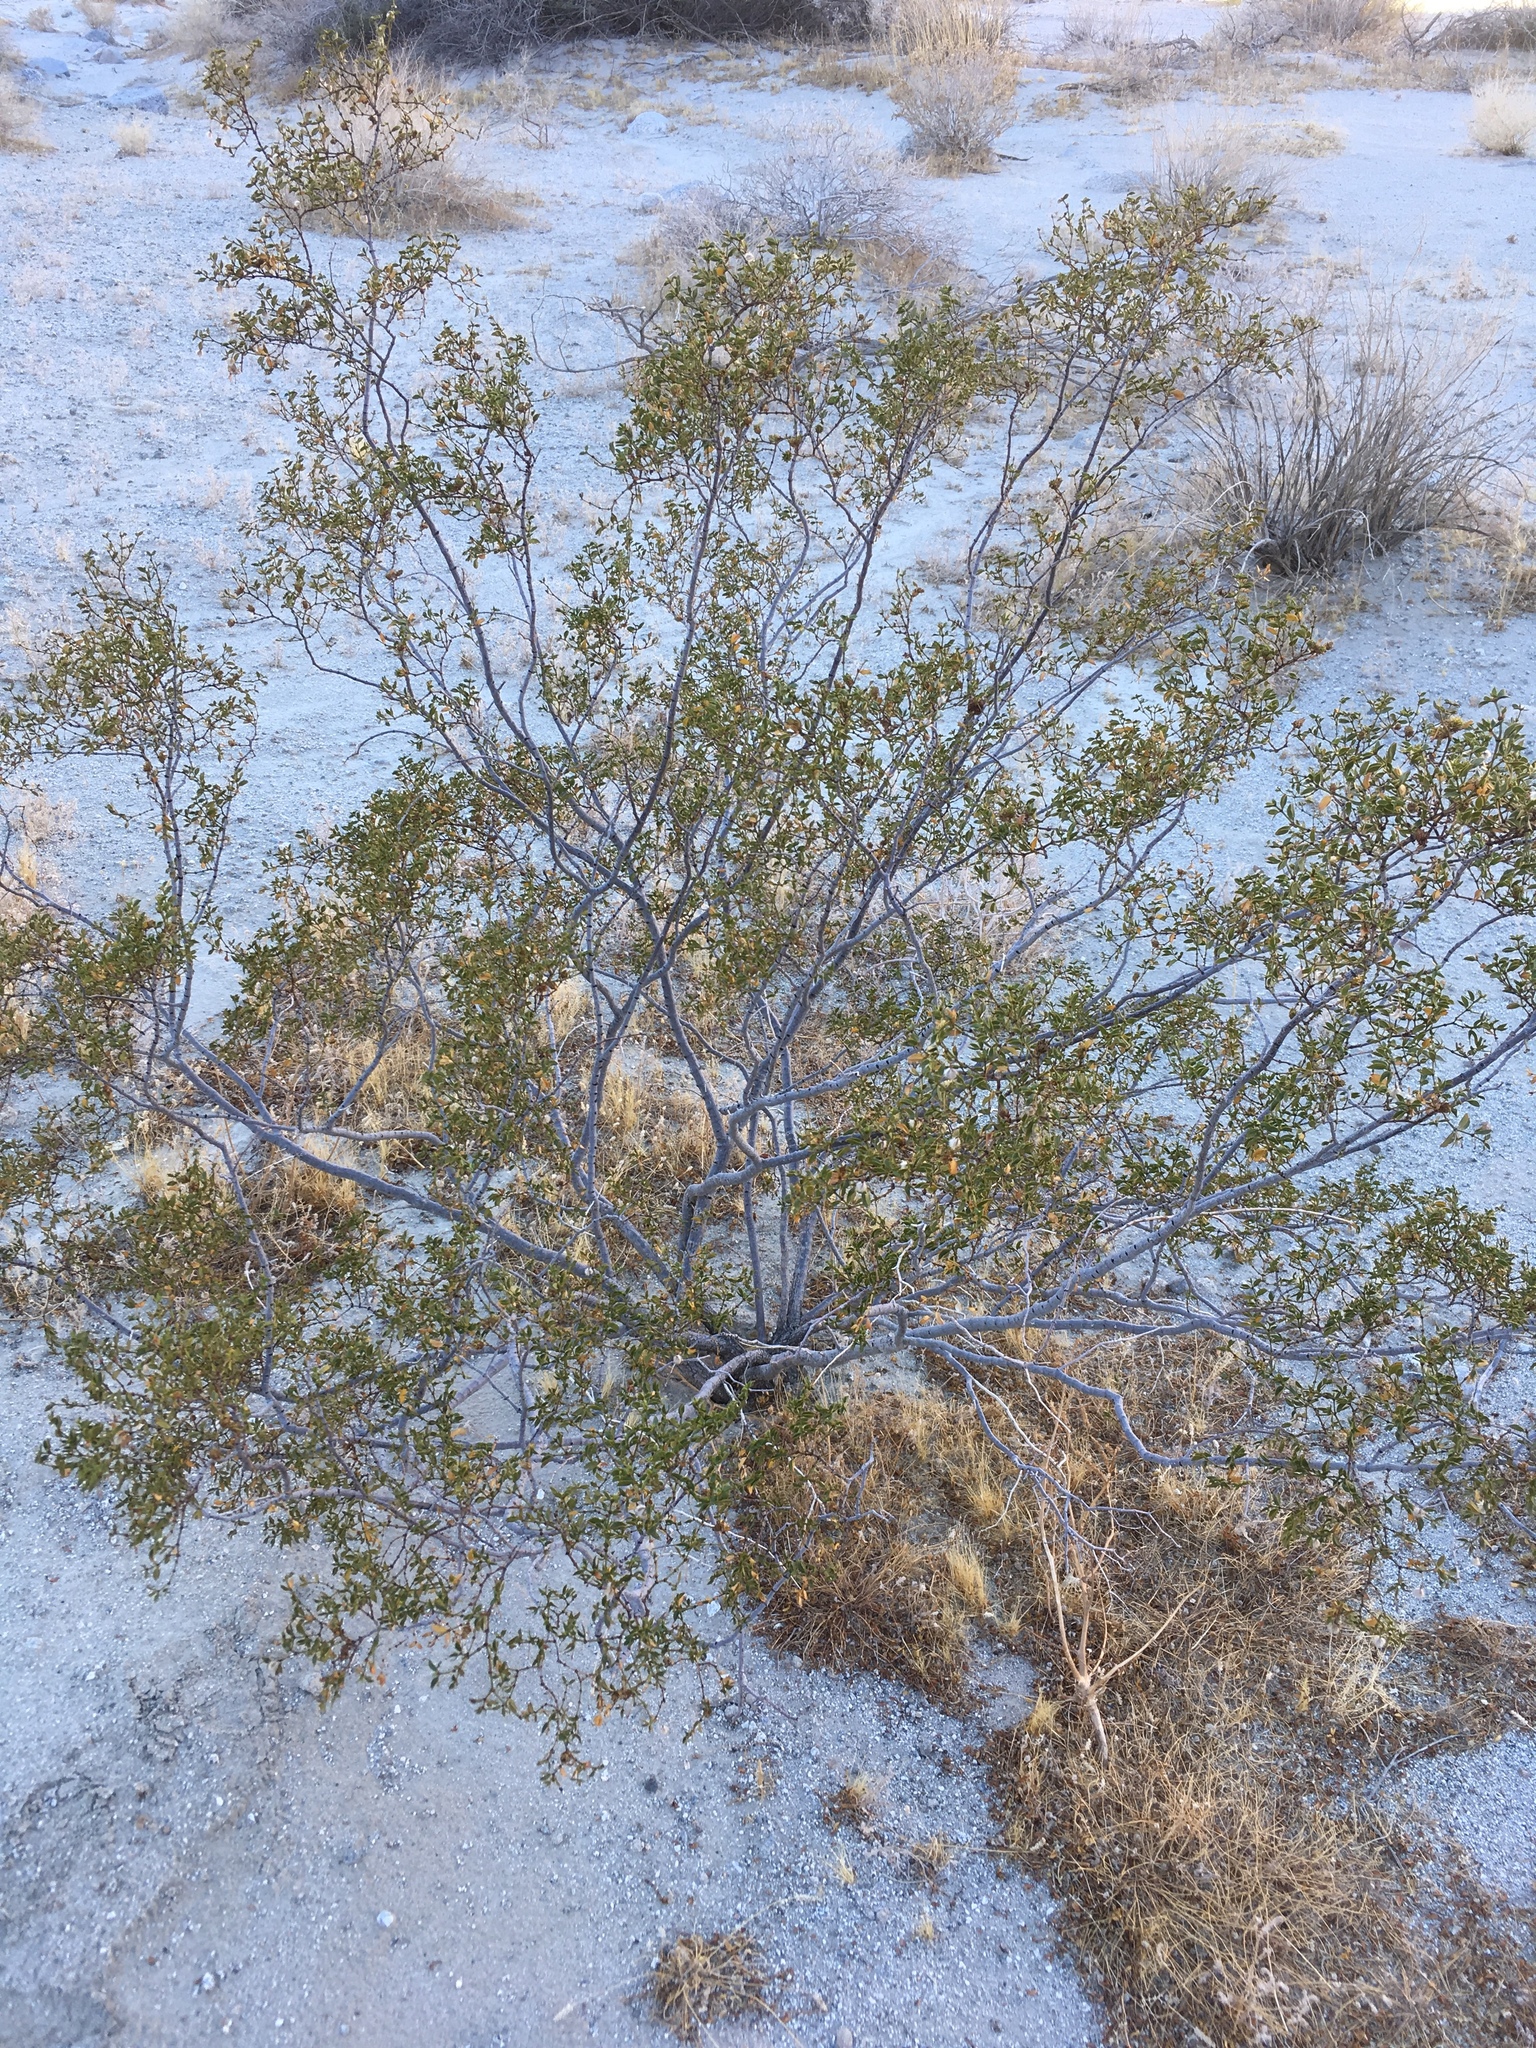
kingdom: Animalia
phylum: Arthropoda
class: Insecta
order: Diptera
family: Cecidomyiidae
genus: Asphondylia
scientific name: Asphondylia auripila
